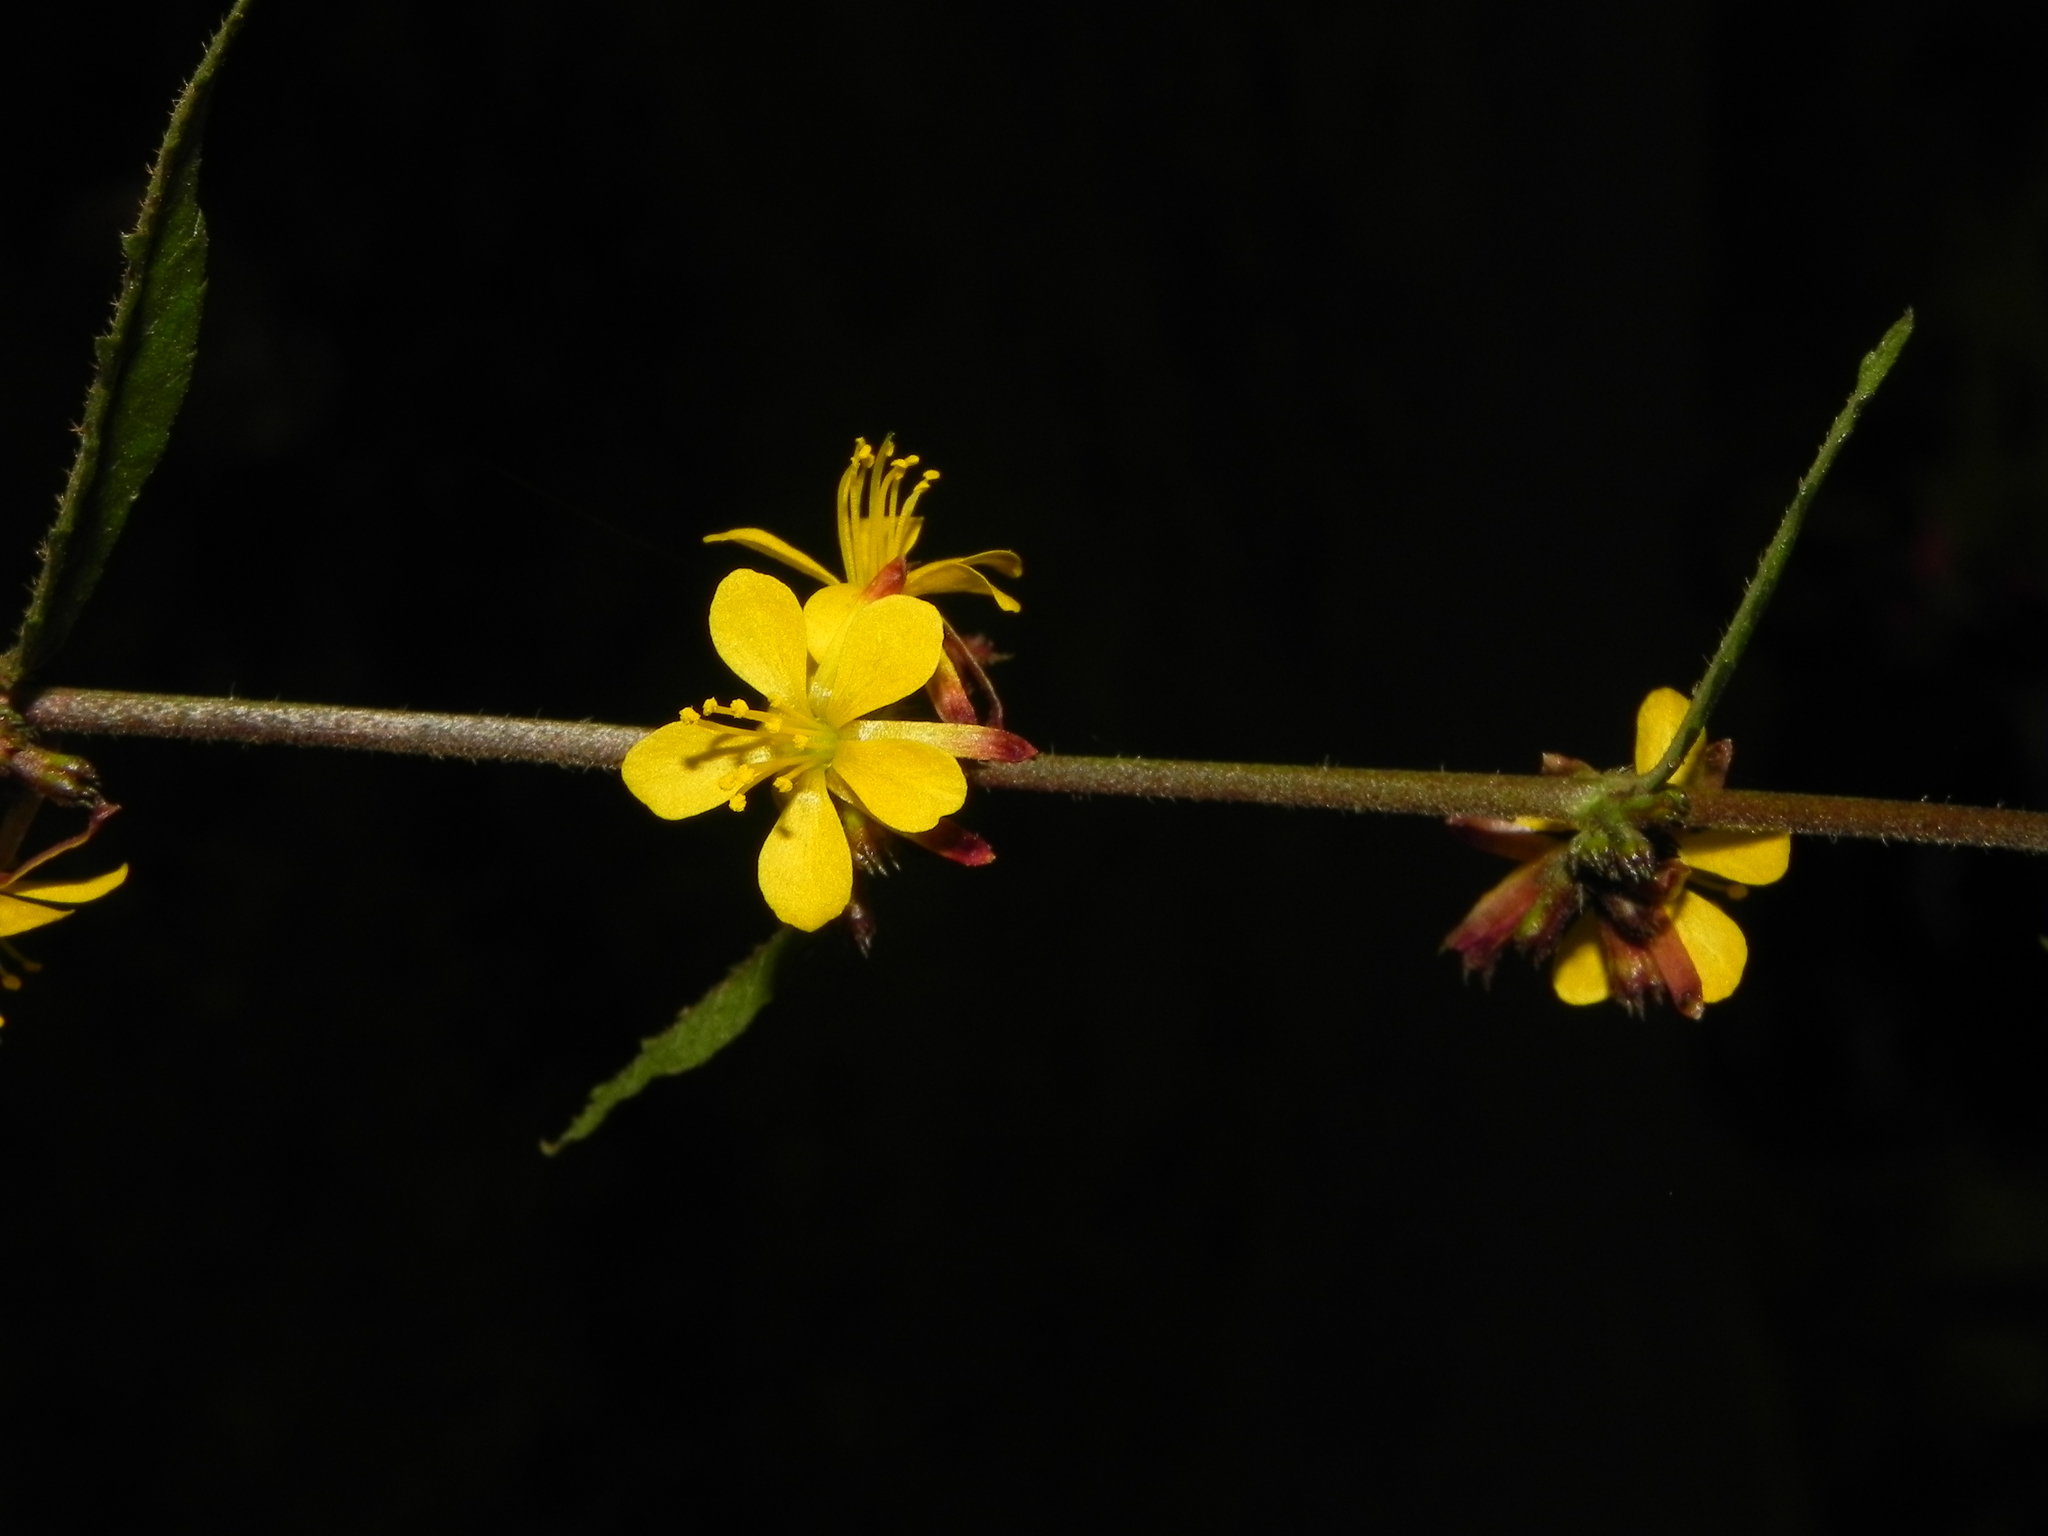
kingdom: Plantae
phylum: Tracheophyta
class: Magnoliopsida
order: Malvales
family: Malvaceae
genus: Triumfetta
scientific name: Triumfetta rhomboidea
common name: Diamond burbark
